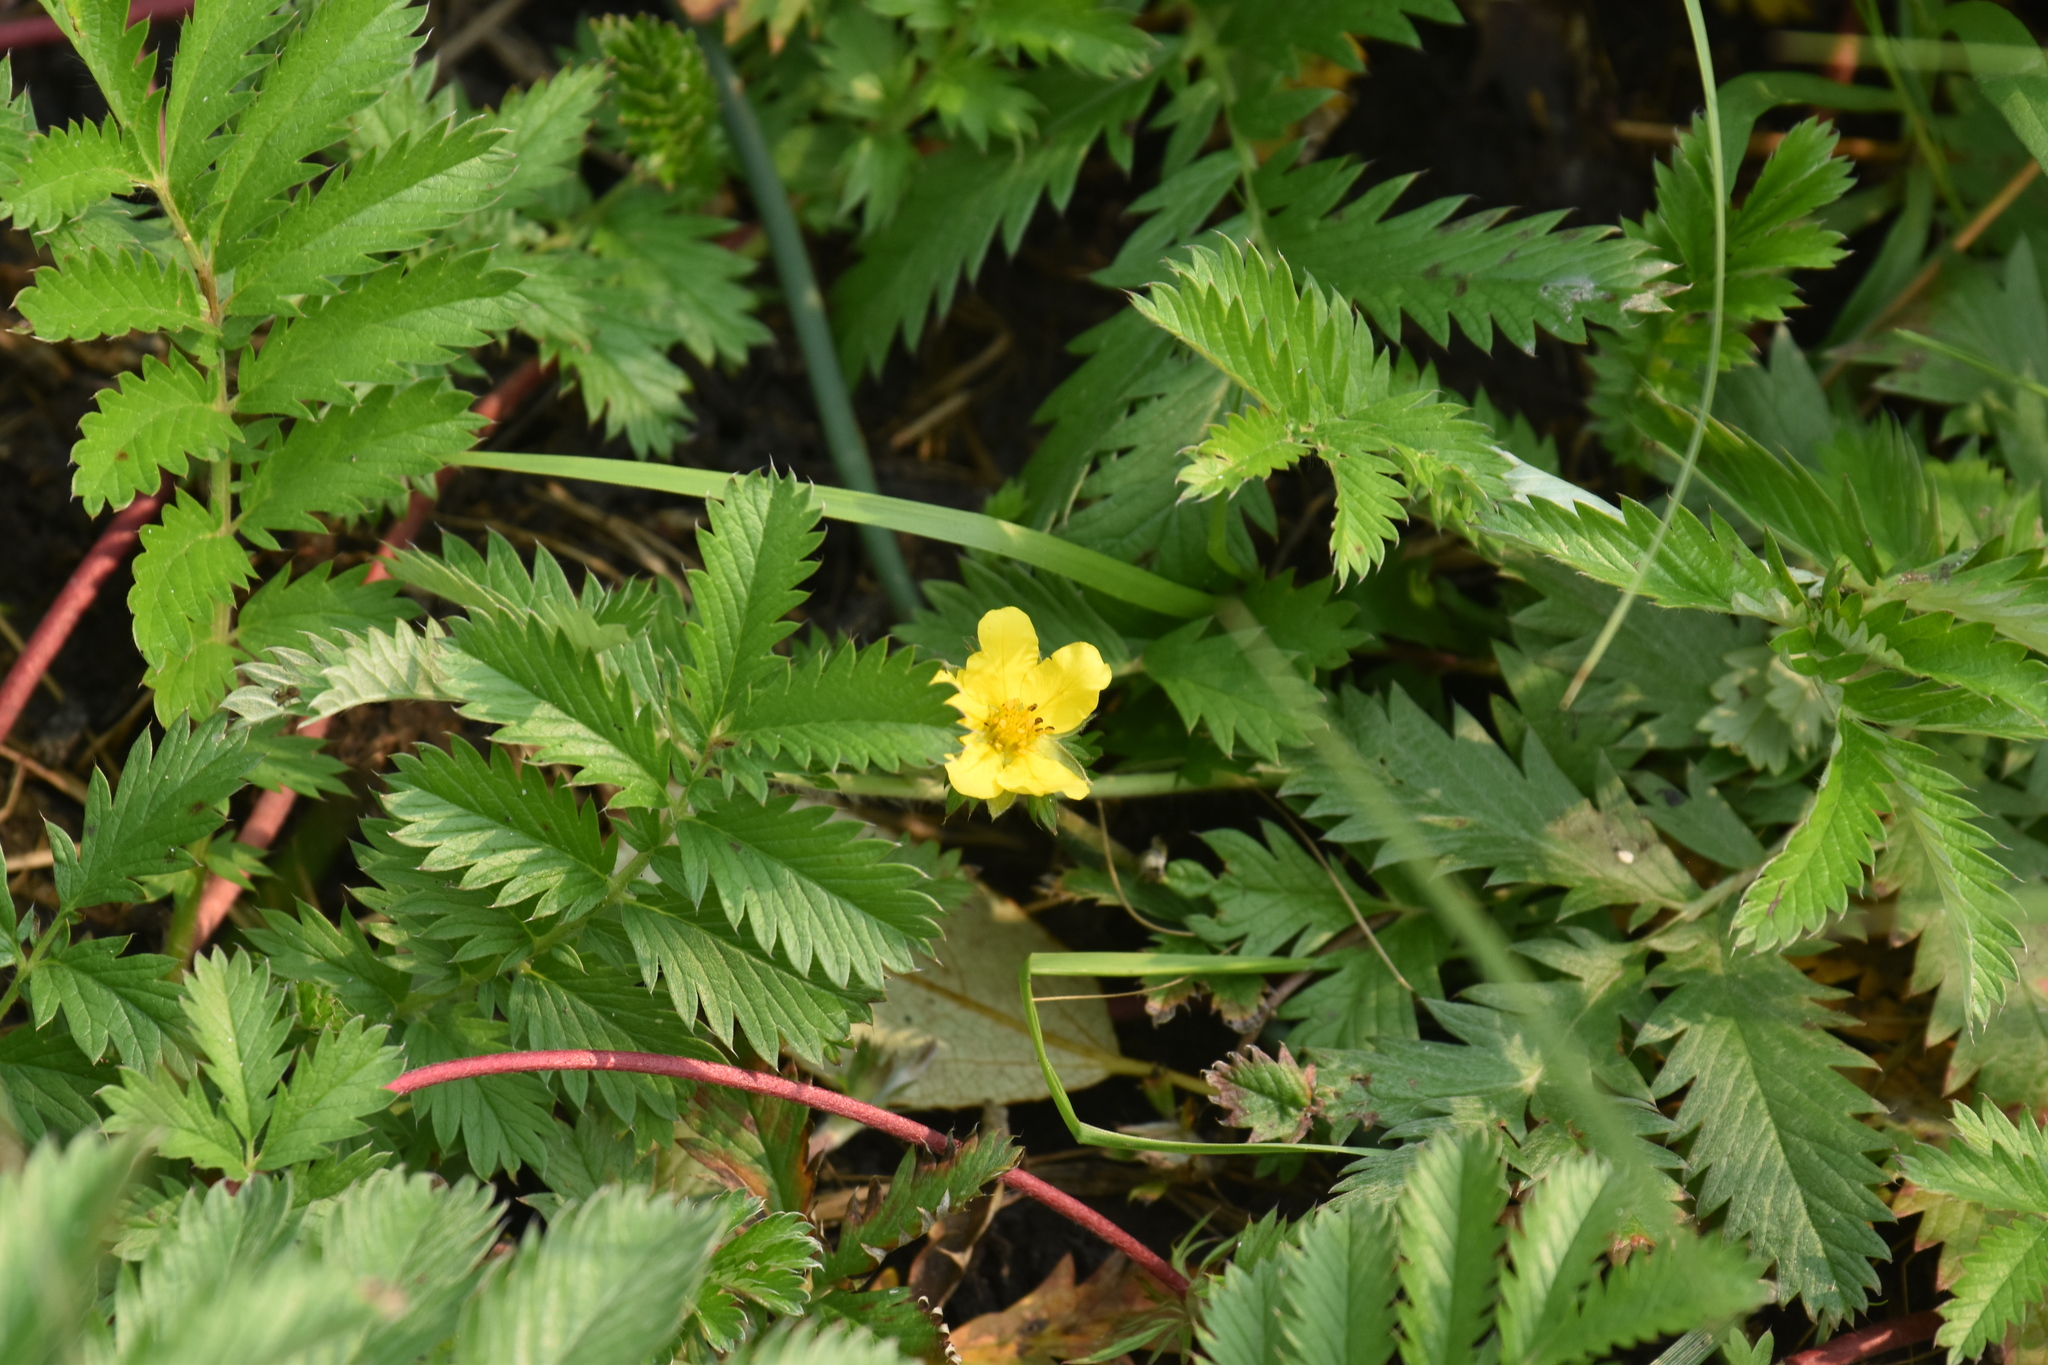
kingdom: Plantae
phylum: Tracheophyta
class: Magnoliopsida
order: Rosales
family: Rosaceae
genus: Argentina
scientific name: Argentina anserina
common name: Common silverweed
